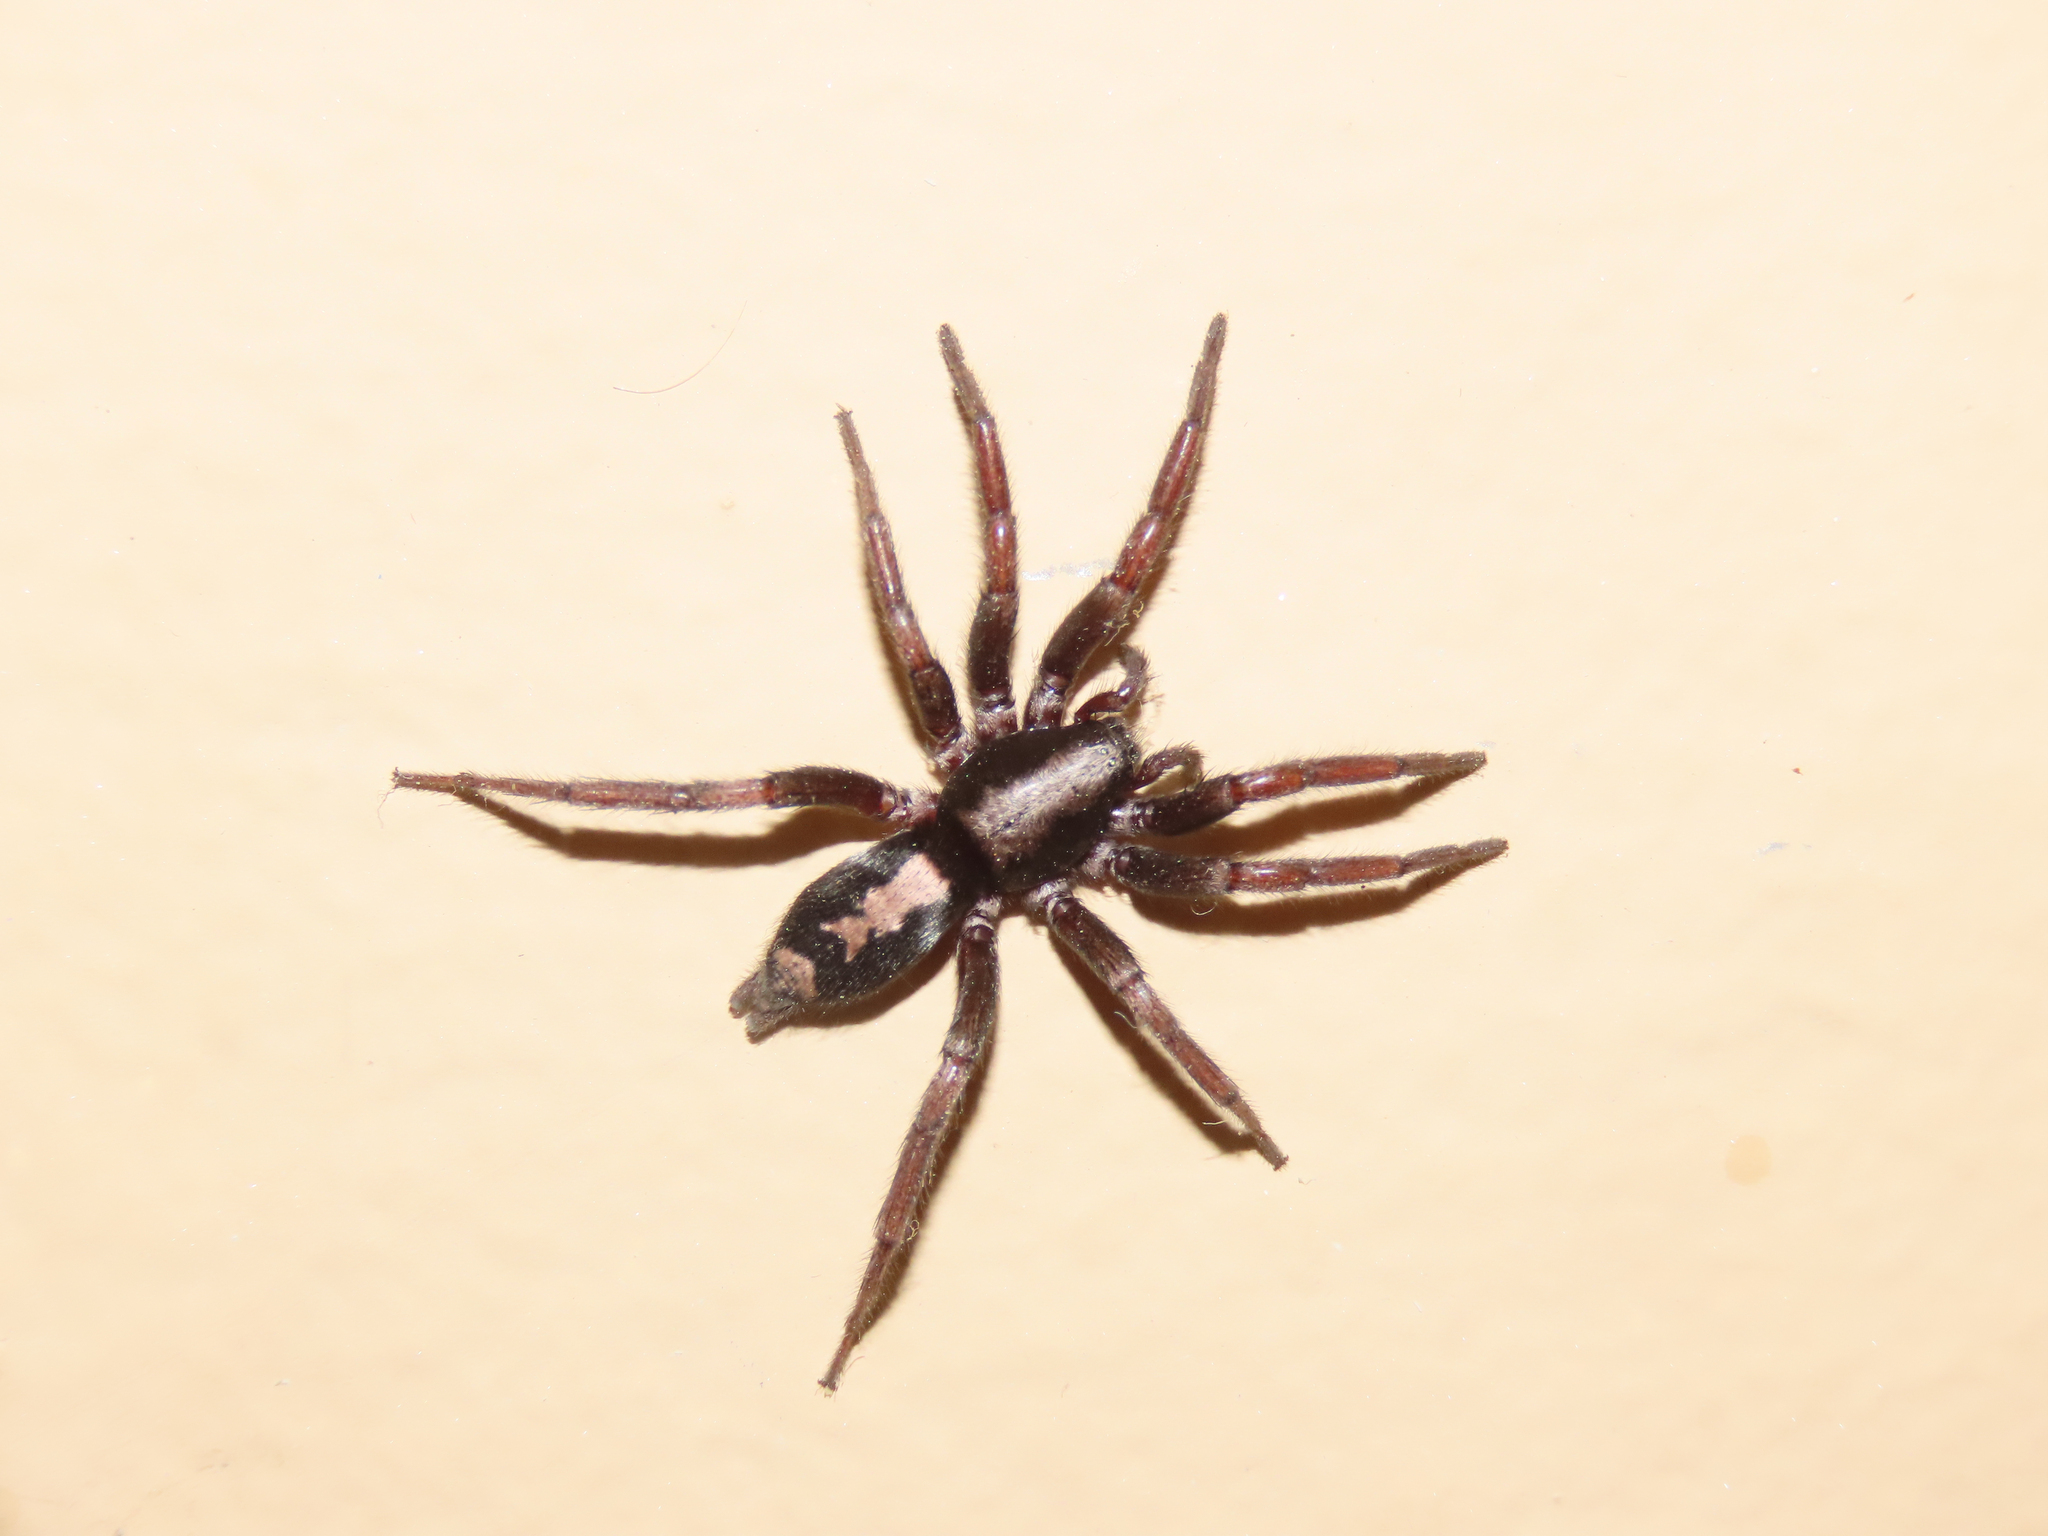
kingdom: Animalia
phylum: Arthropoda
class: Arachnida
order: Araneae
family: Gnaphosidae
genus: Herpyllus
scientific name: Herpyllus ecclesiasticus
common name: Eastern parson spider
